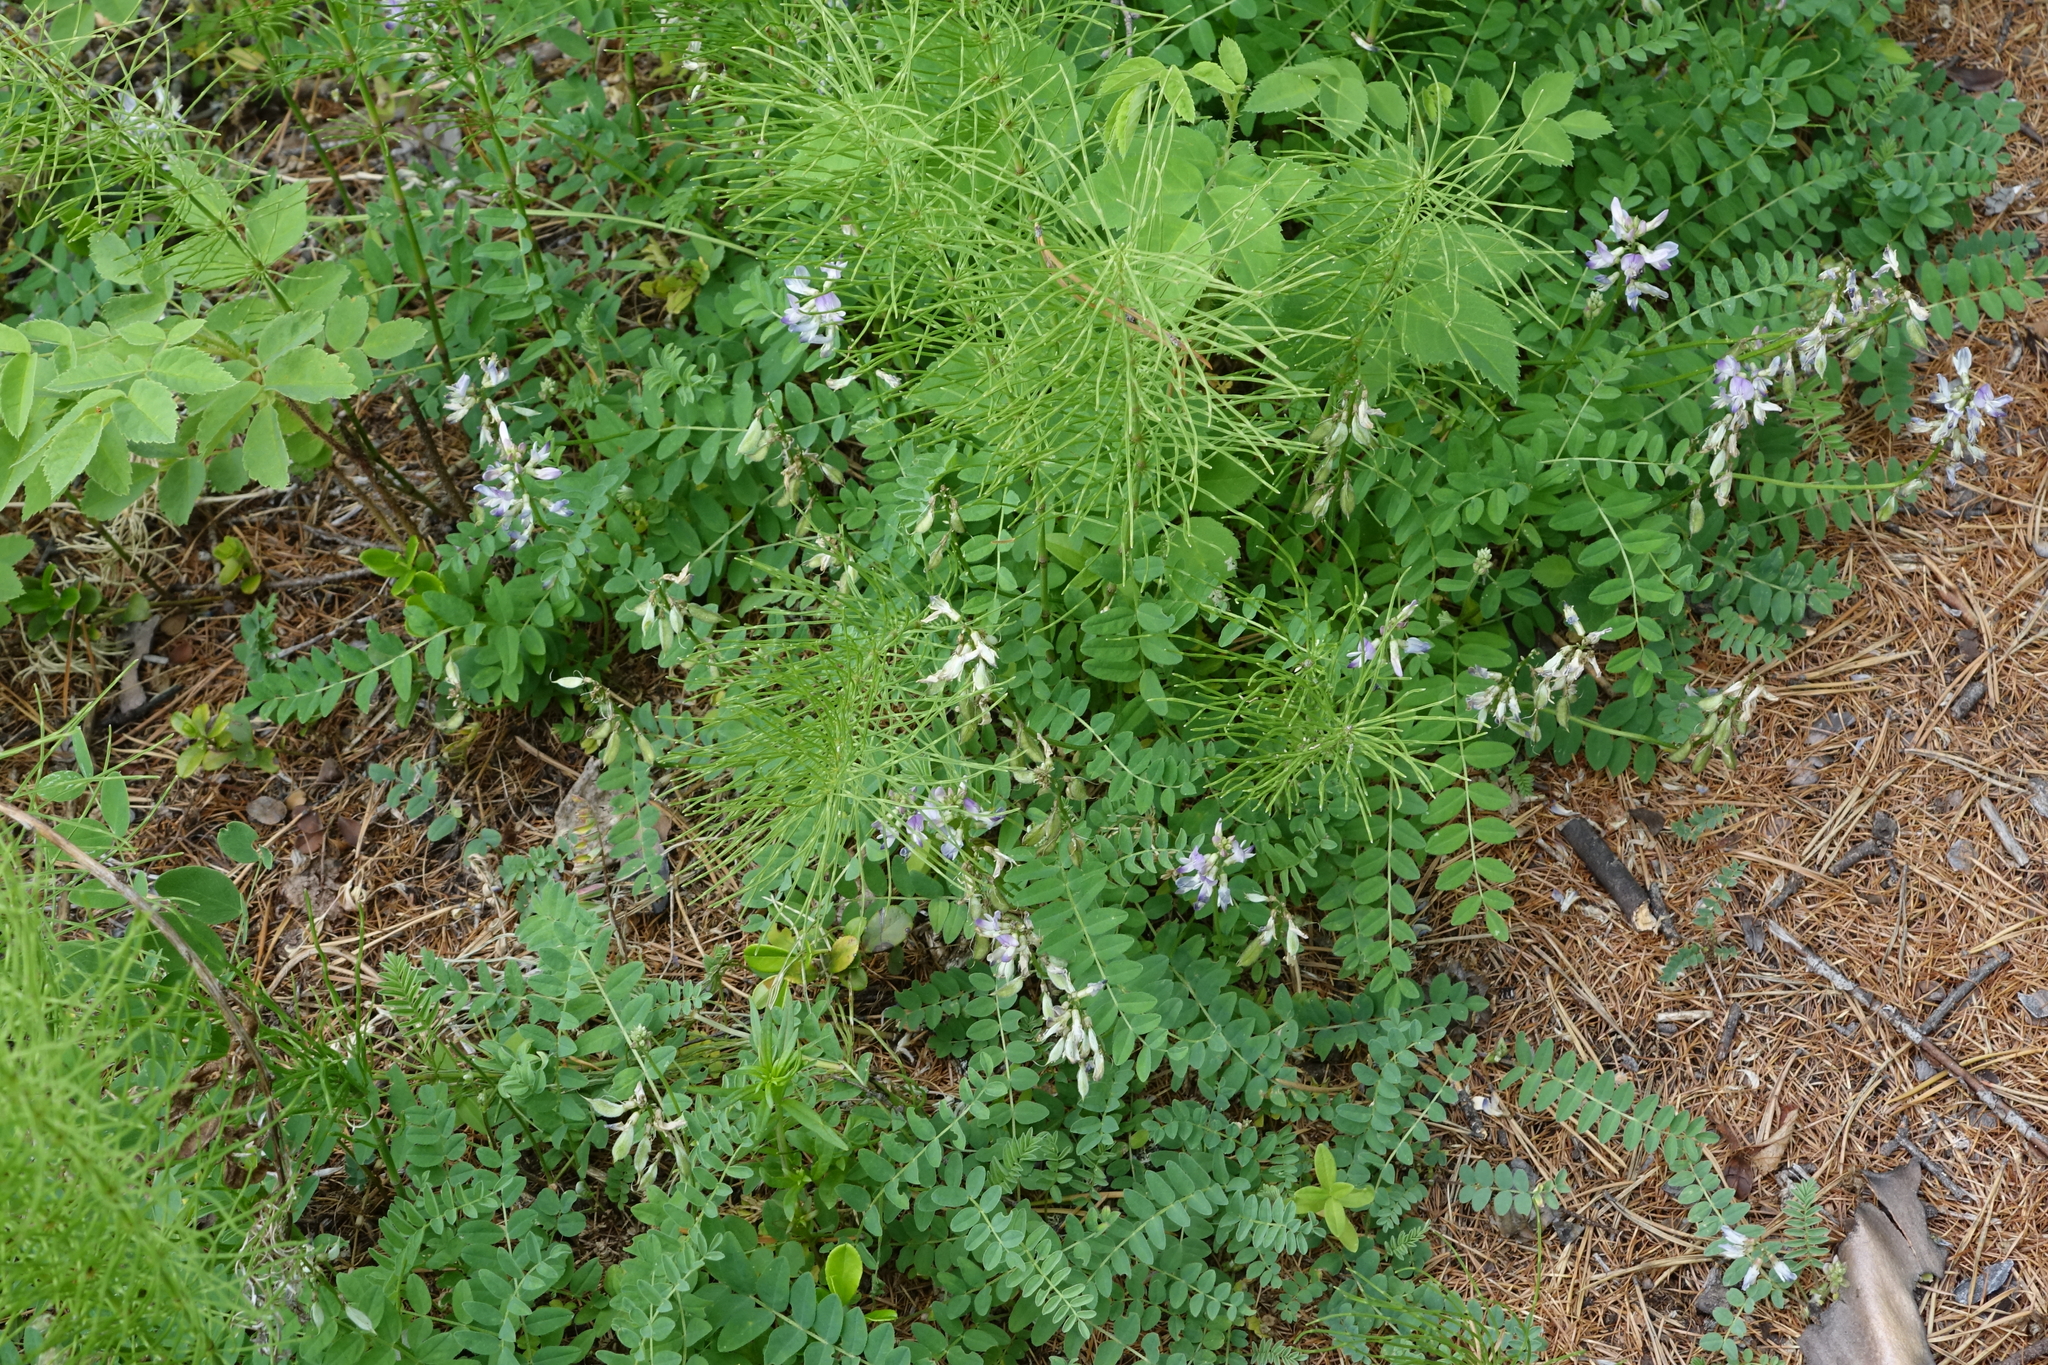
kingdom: Plantae
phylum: Tracheophyta
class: Polypodiopsida
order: Equisetales
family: Equisetaceae
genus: Equisetum
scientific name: Equisetum pratense
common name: Meadow horsetail
